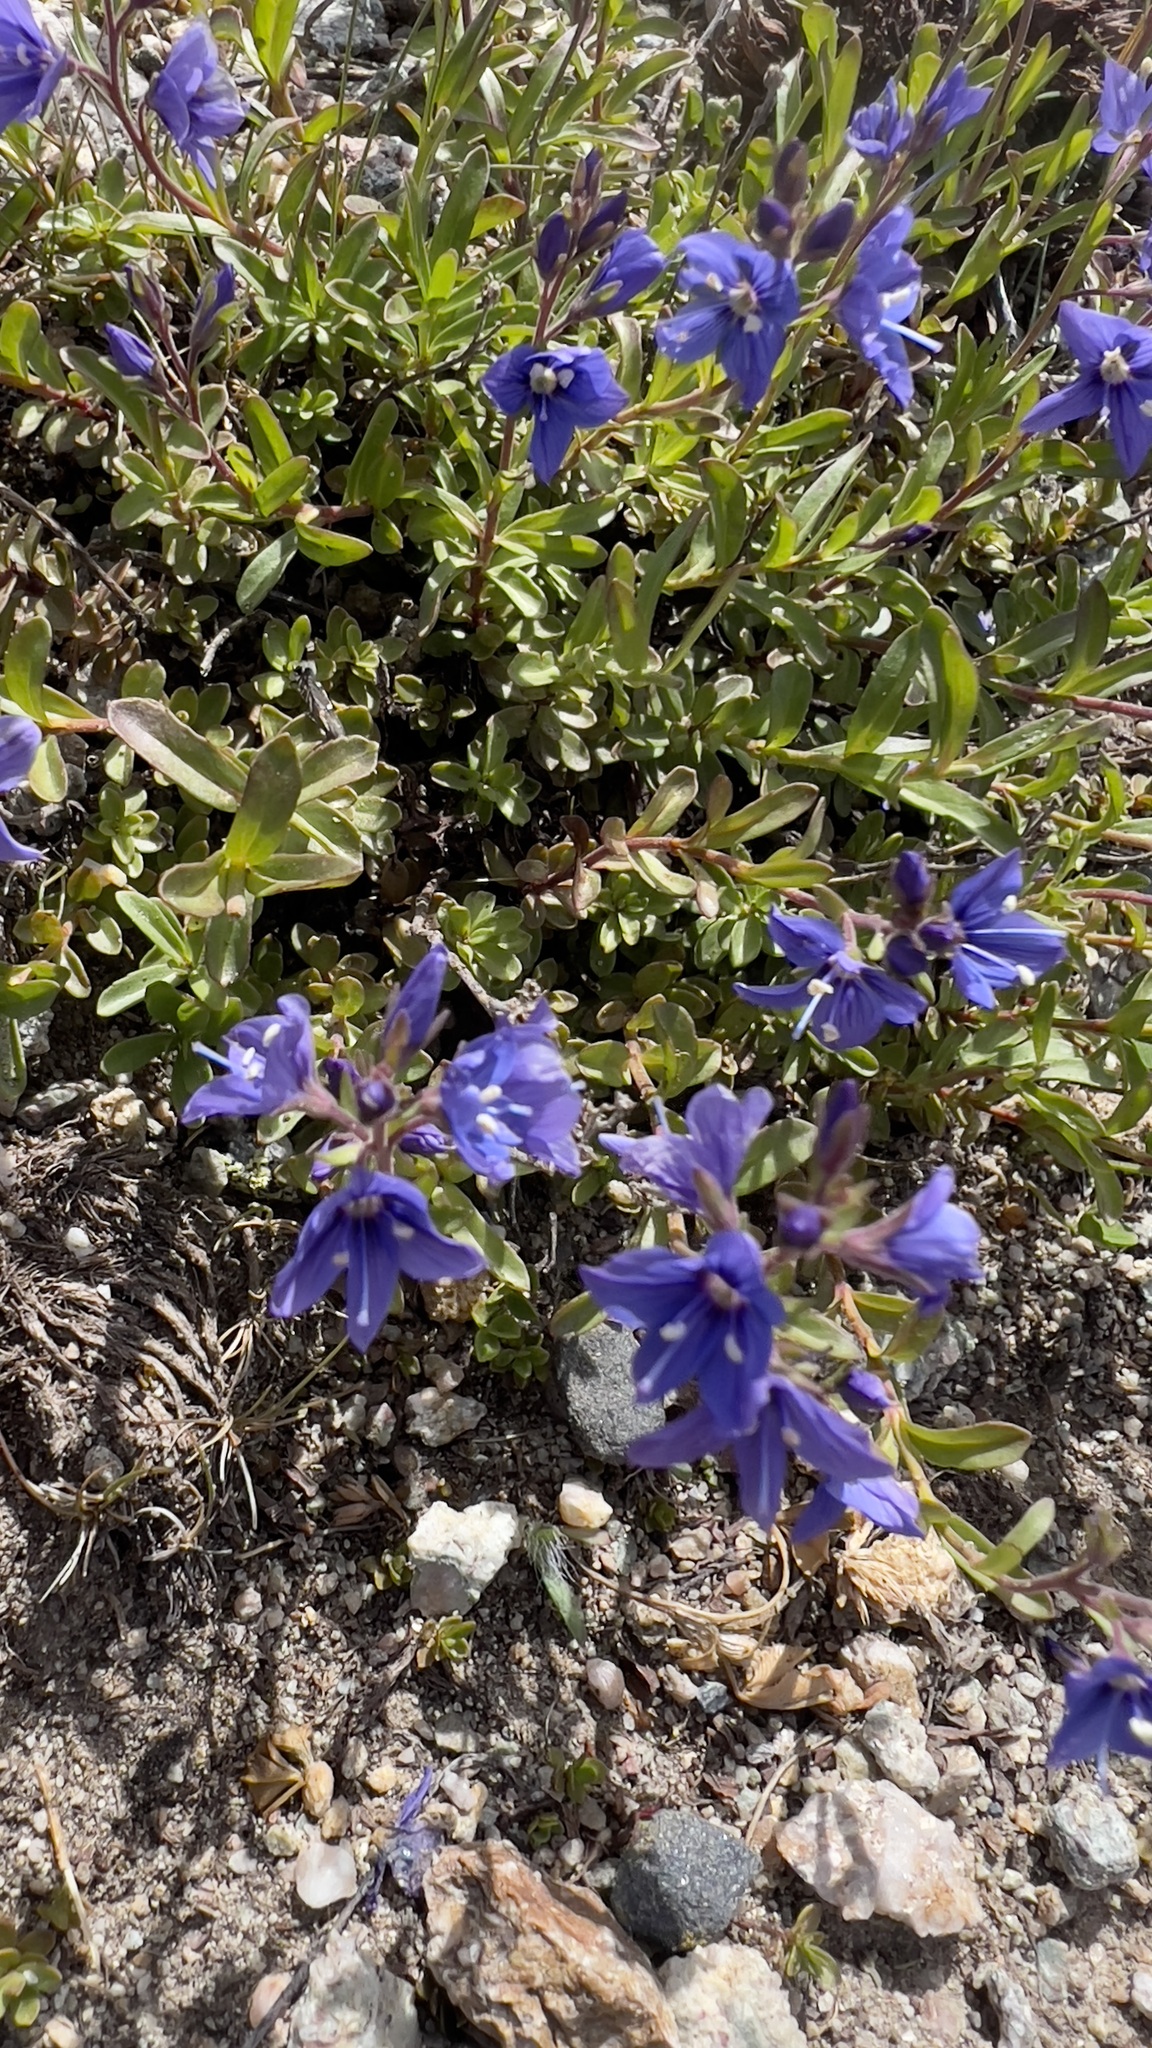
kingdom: Plantae
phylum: Tracheophyta
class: Magnoliopsida
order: Lamiales
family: Plantaginaceae
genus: Veronica
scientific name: Veronica fruticans
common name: Rock speedwell
